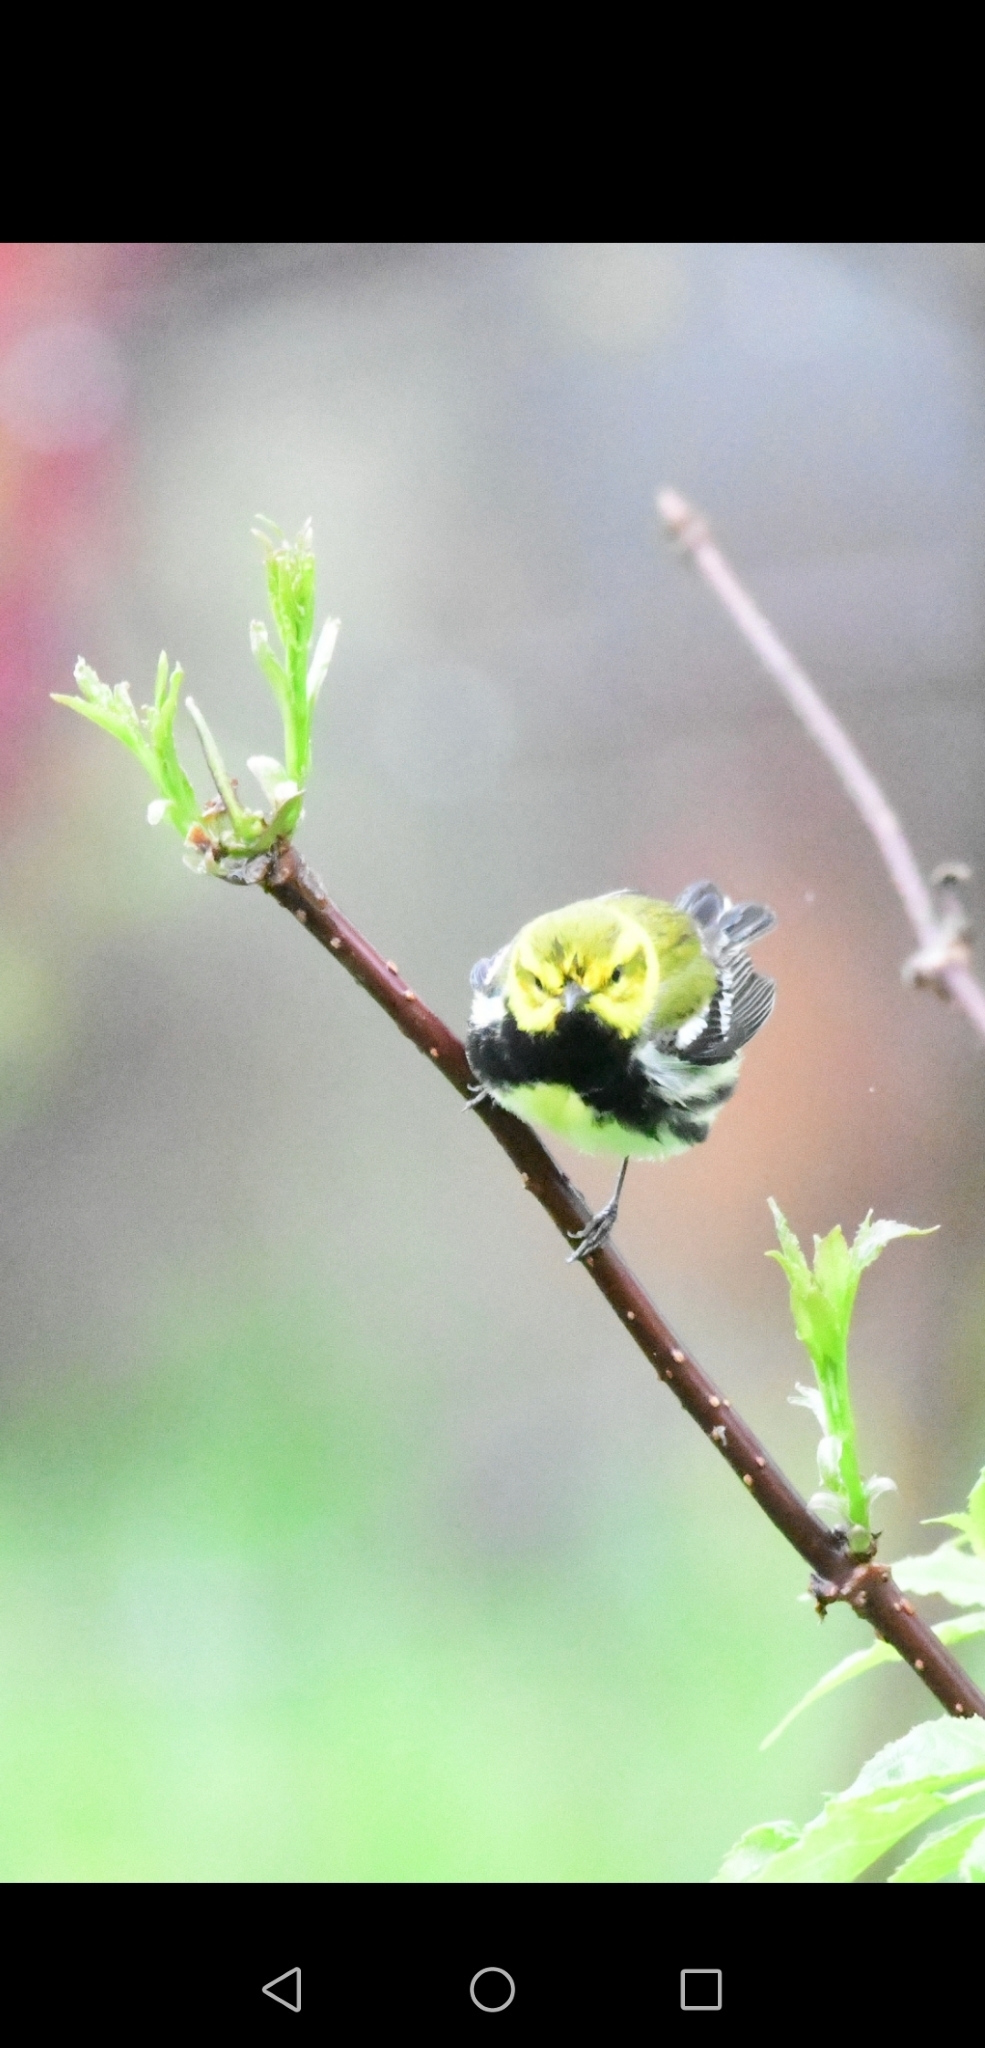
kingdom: Animalia
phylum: Chordata
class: Aves
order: Passeriformes
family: Parulidae
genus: Setophaga
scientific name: Setophaga virens
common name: Black-throated green warbler
